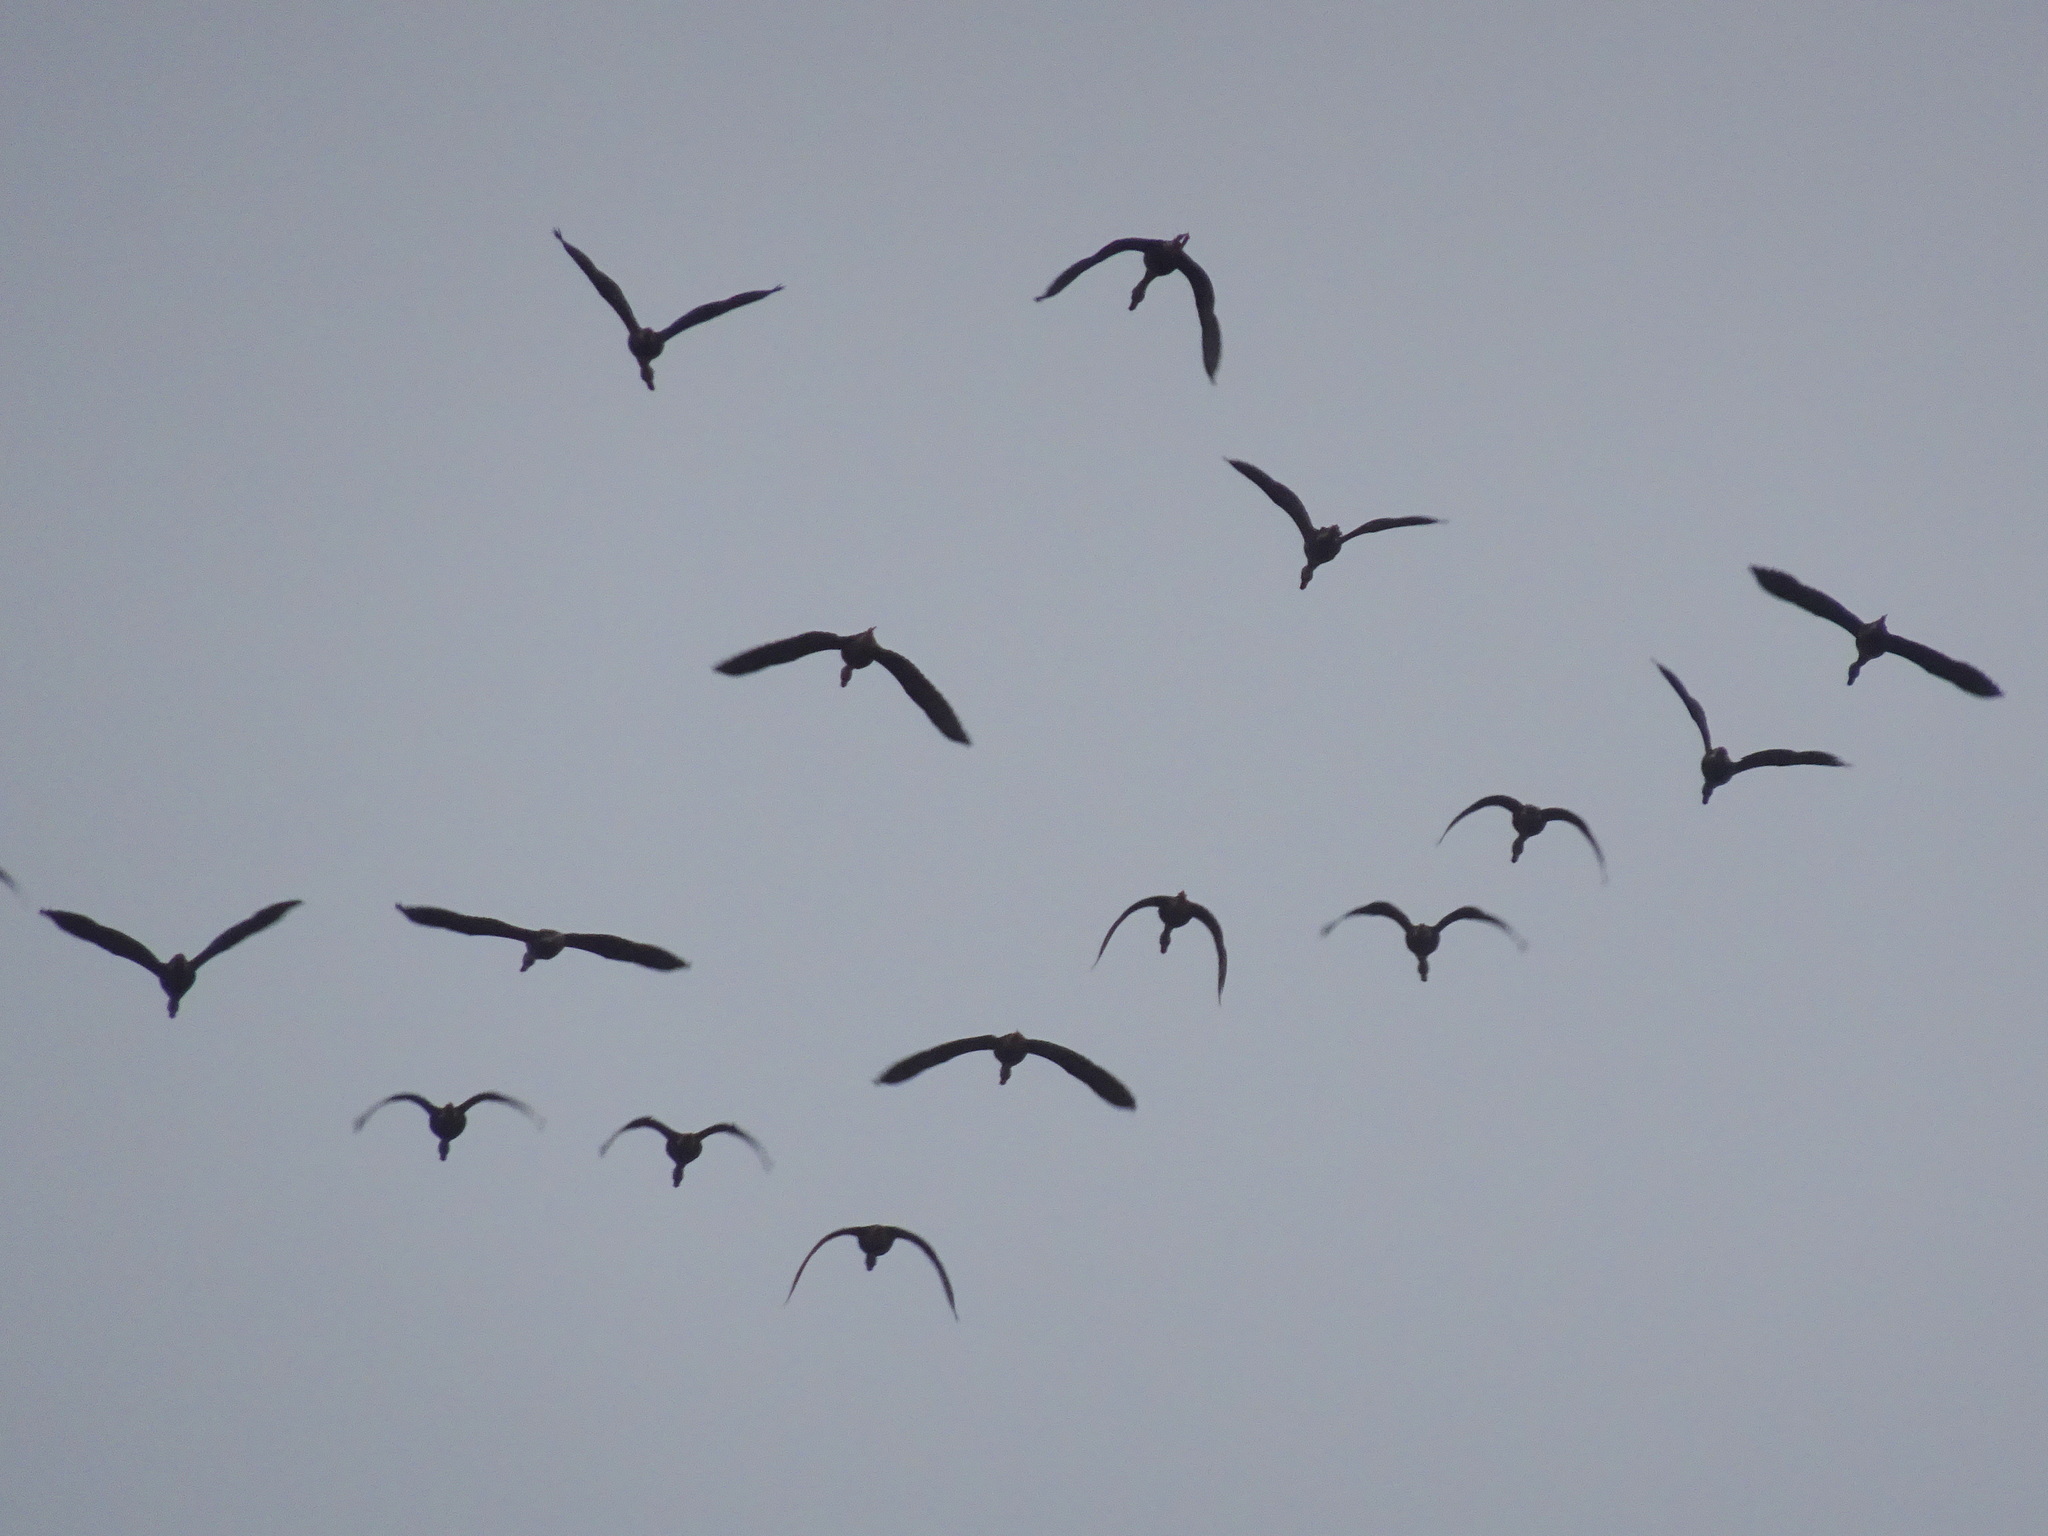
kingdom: Animalia
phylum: Chordata
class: Aves
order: Anseriformes
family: Anatidae
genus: Dendrocygna
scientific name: Dendrocygna autumnalis
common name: Black-bellied whistling duck
